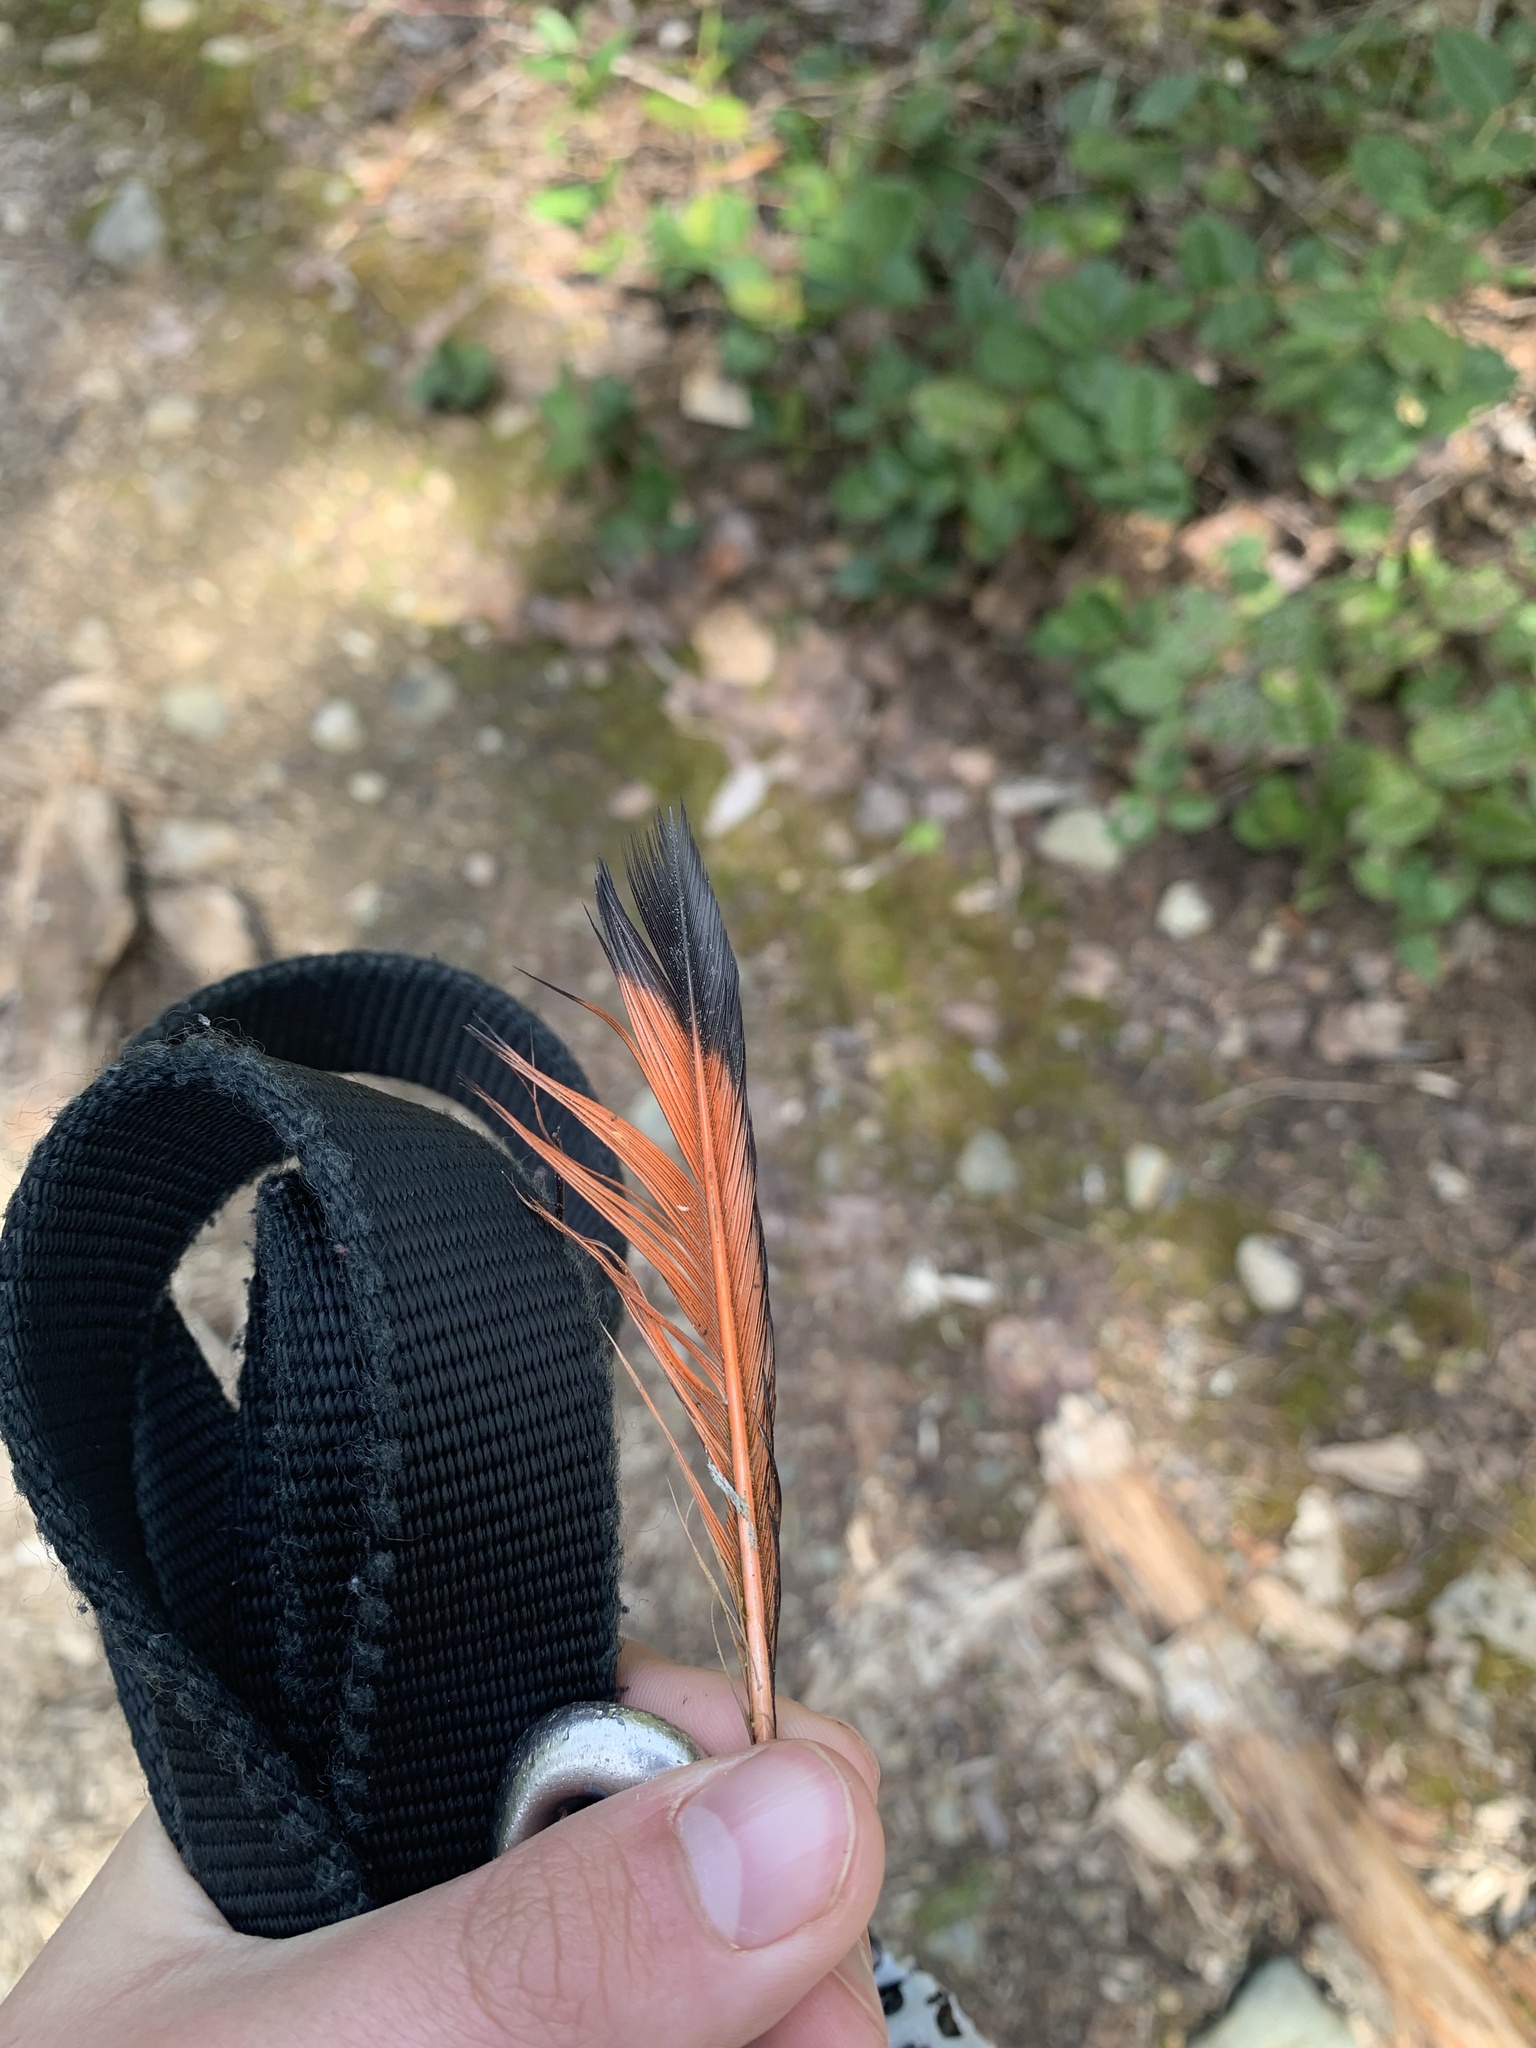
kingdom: Animalia
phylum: Chordata
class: Aves
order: Piciformes
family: Picidae
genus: Colaptes
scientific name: Colaptes auratus
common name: Northern flicker
